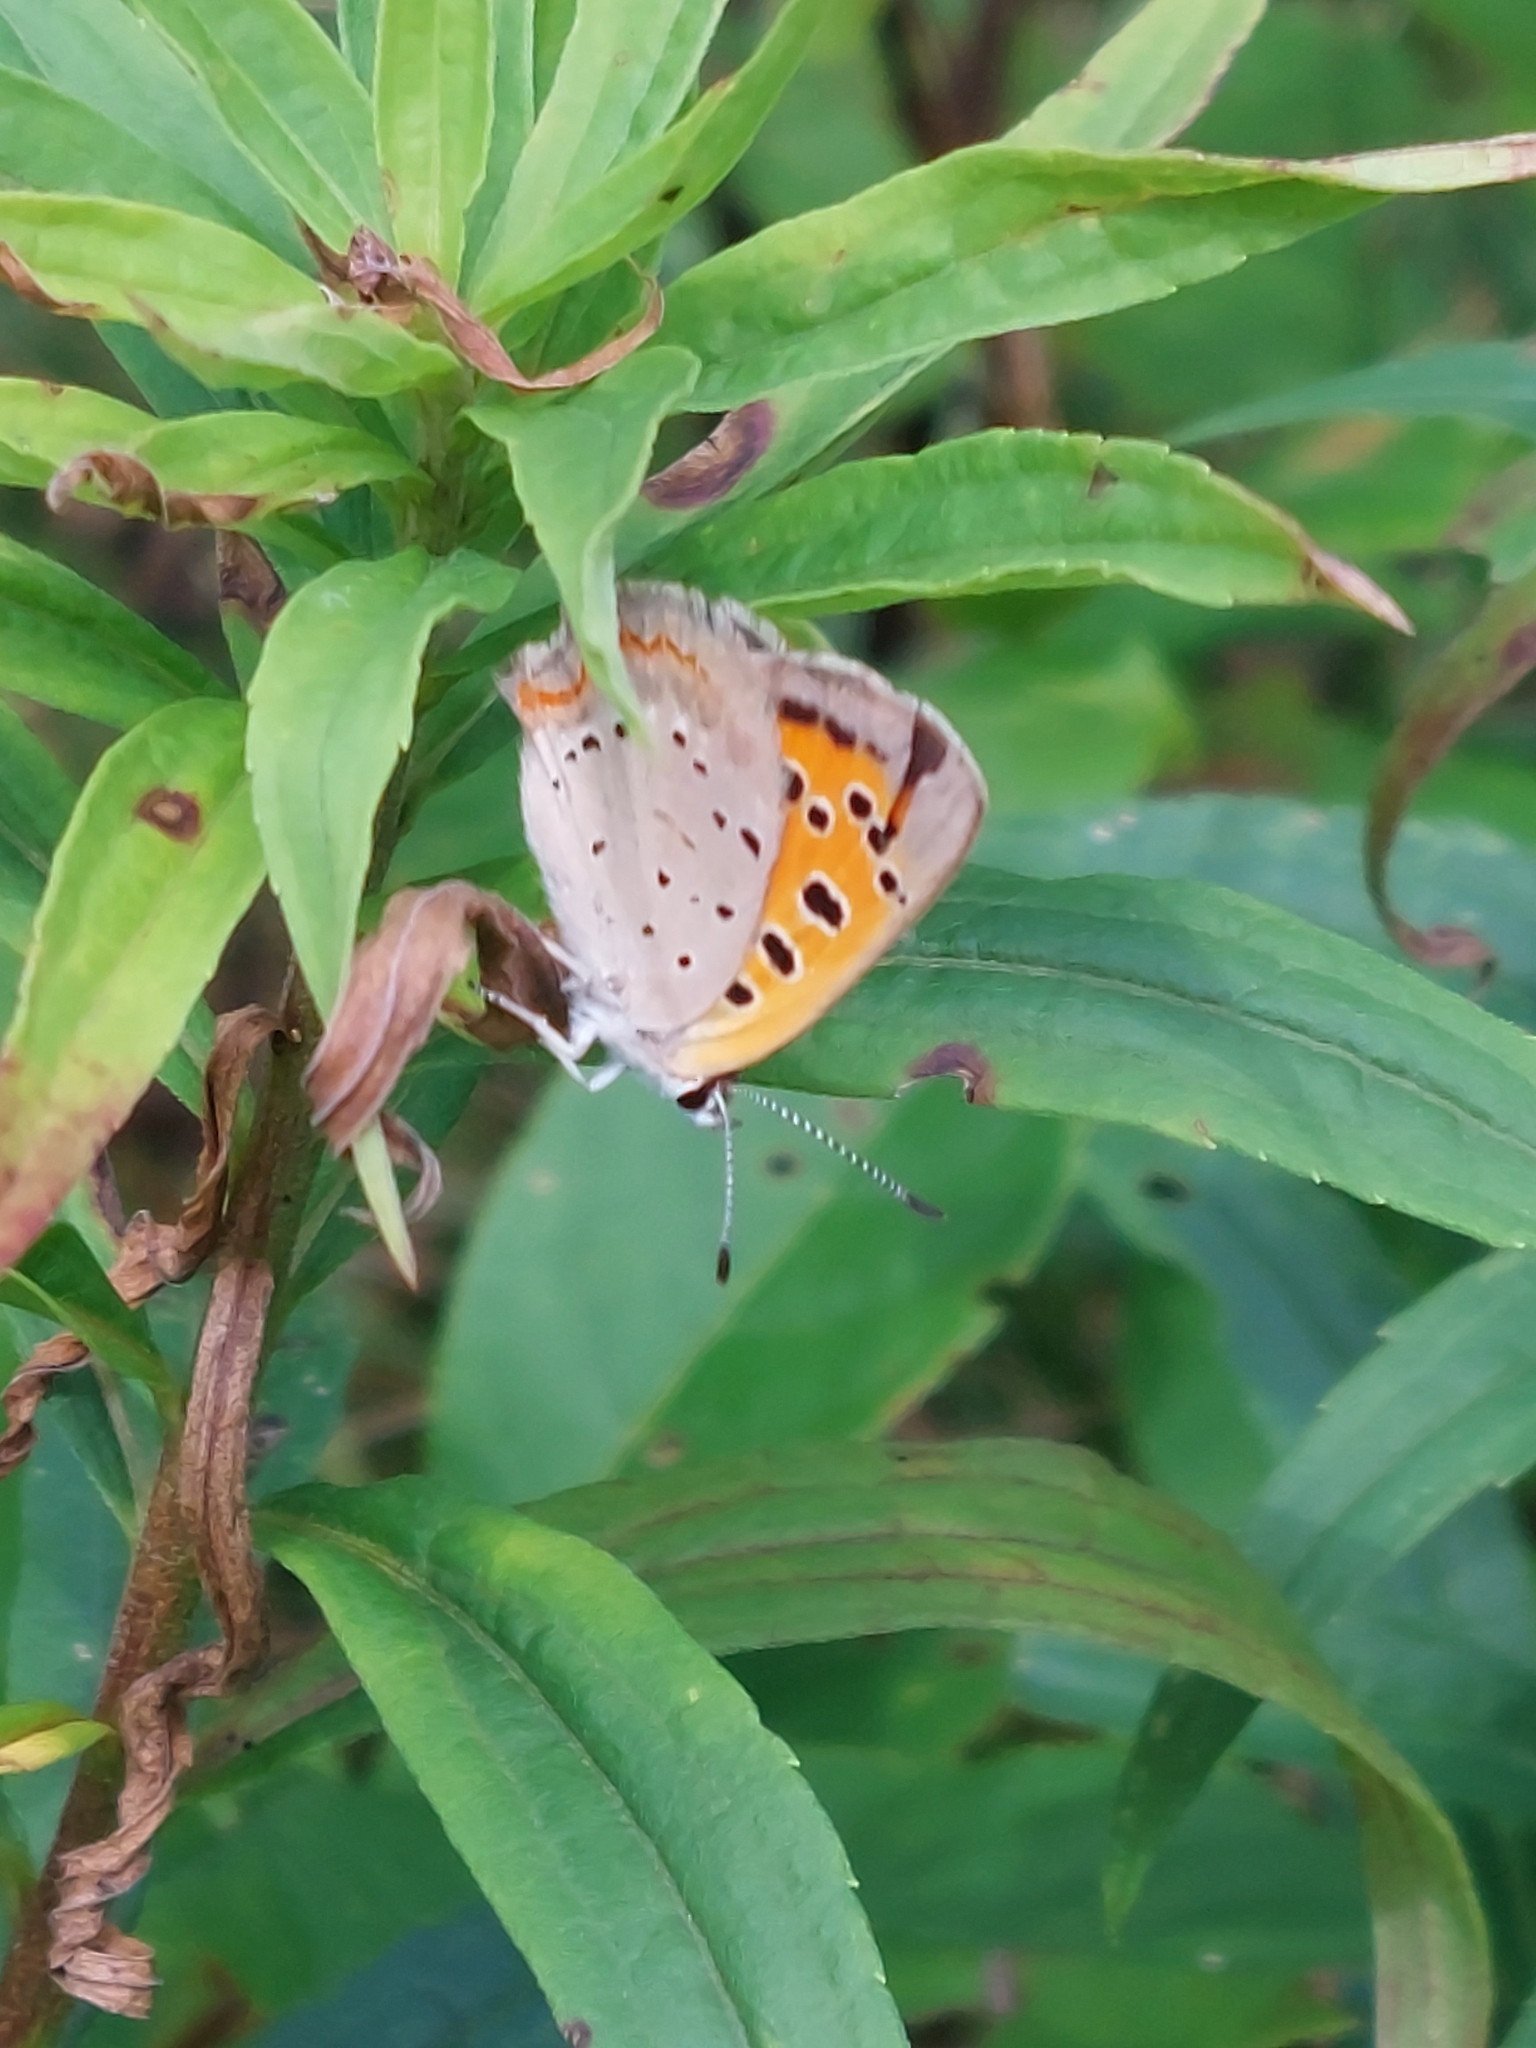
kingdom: Animalia
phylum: Arthropoda
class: Insecta
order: Lepidoptera
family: Lycaenidae
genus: Lycaena
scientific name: Lycaena hypophlaeas
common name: American copper
